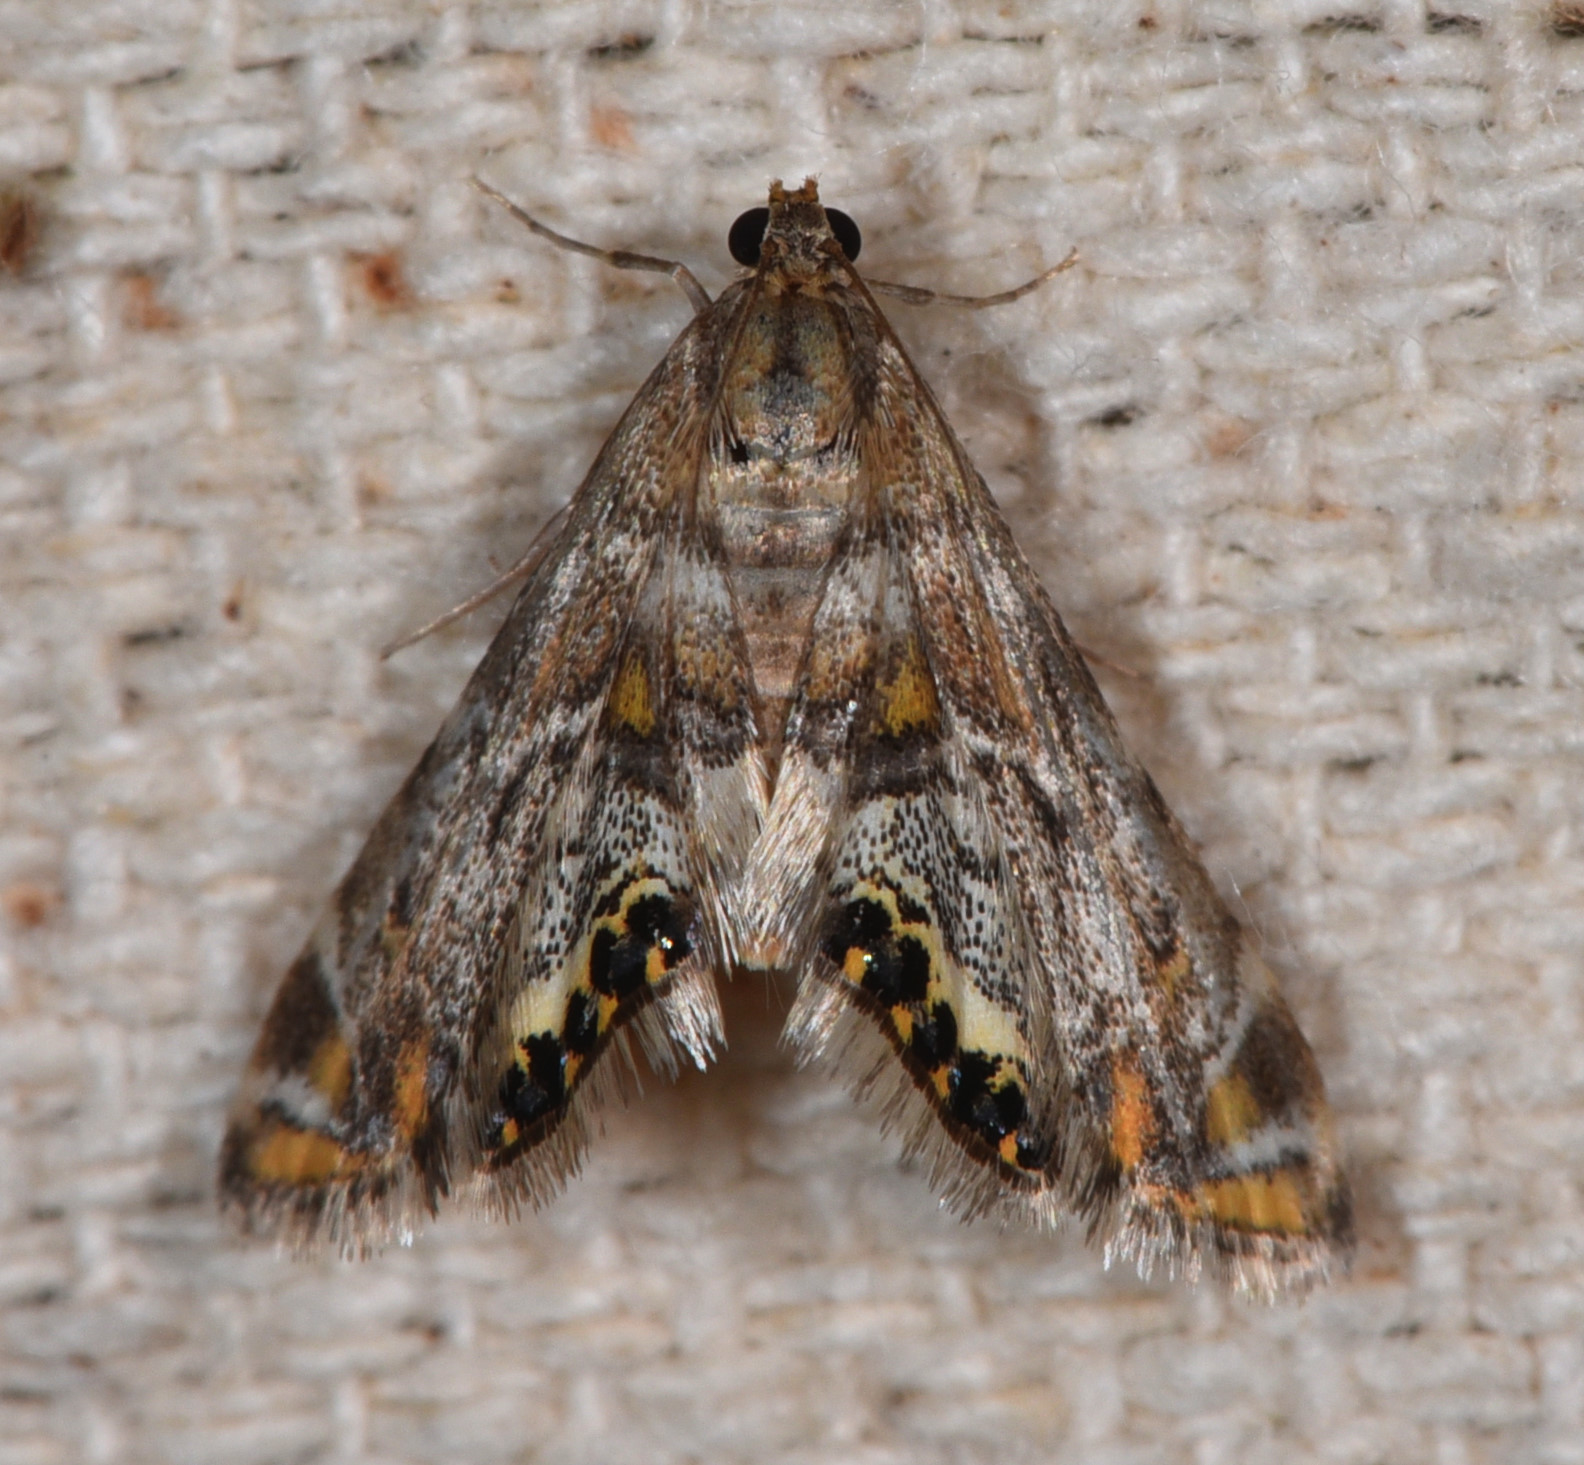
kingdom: Animalia
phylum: Arthropoda
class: Insecta
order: Lepidoptera
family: Crambidae
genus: Petrophila
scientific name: Petrophila confusalis
